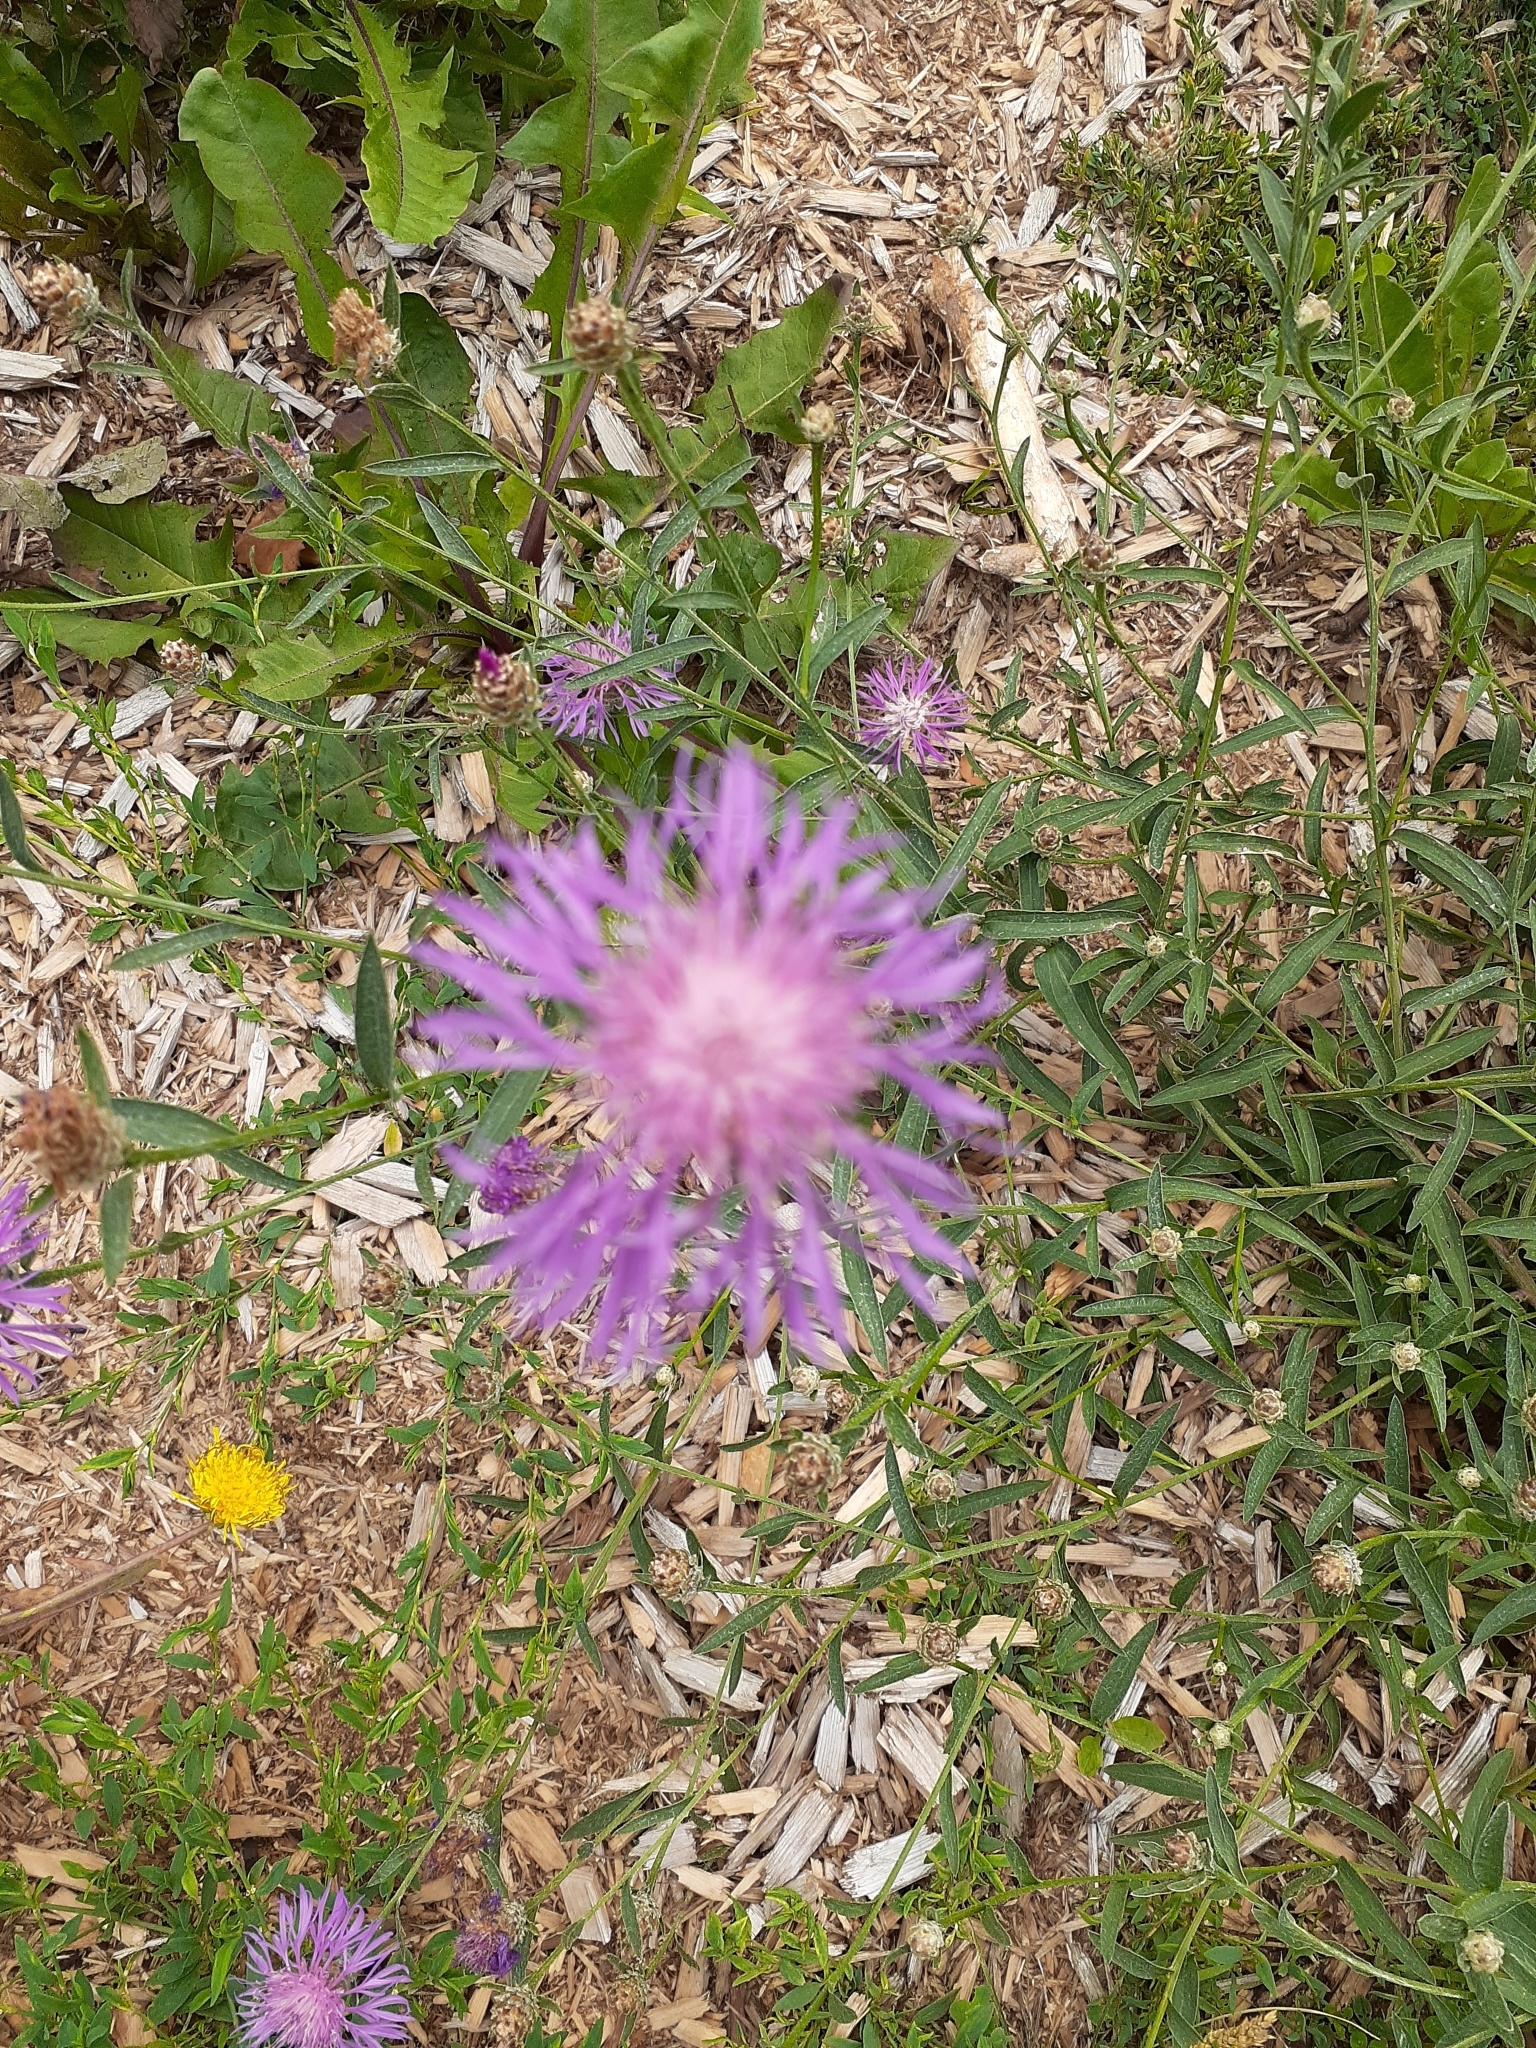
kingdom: Plantae
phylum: Tracheophyta
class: Magnoliopsida
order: Asterales
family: Asteraceae
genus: Centaurea
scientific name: Centaurea jacea
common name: Brown knapweed
